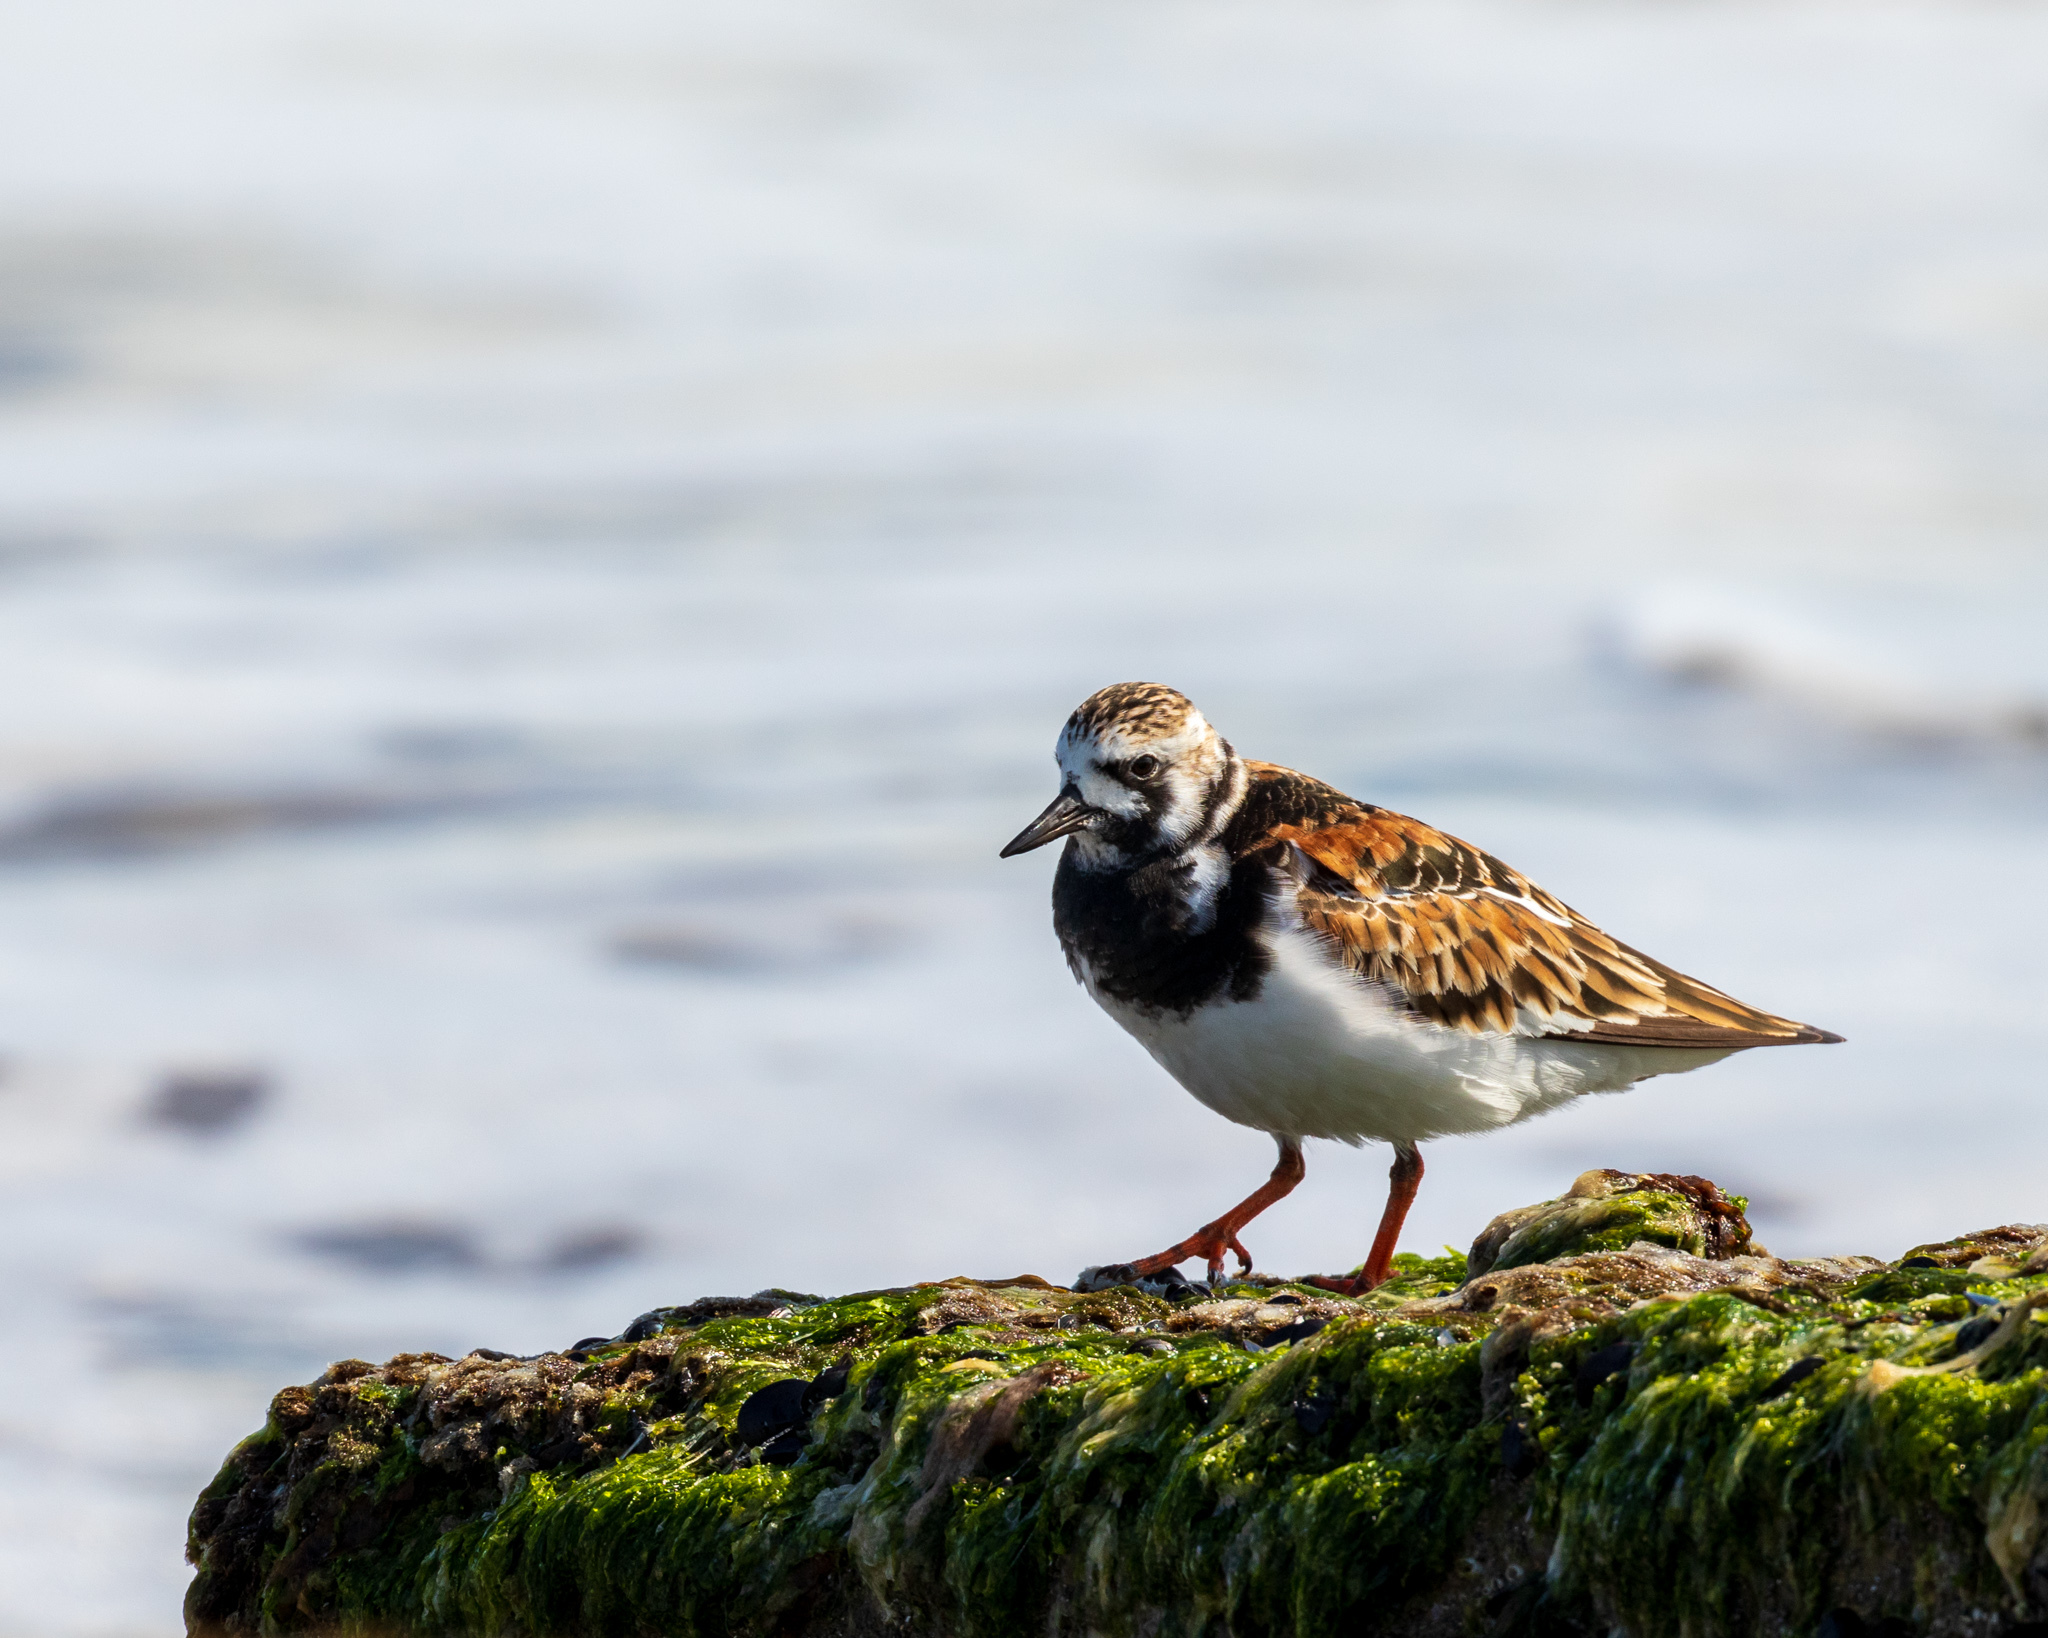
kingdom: Animalia
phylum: Chordata
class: Aves
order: Charadriiformes
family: Scolopacidae
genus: Arenaria
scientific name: Arenaria interpres
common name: Ruddy turnstone
